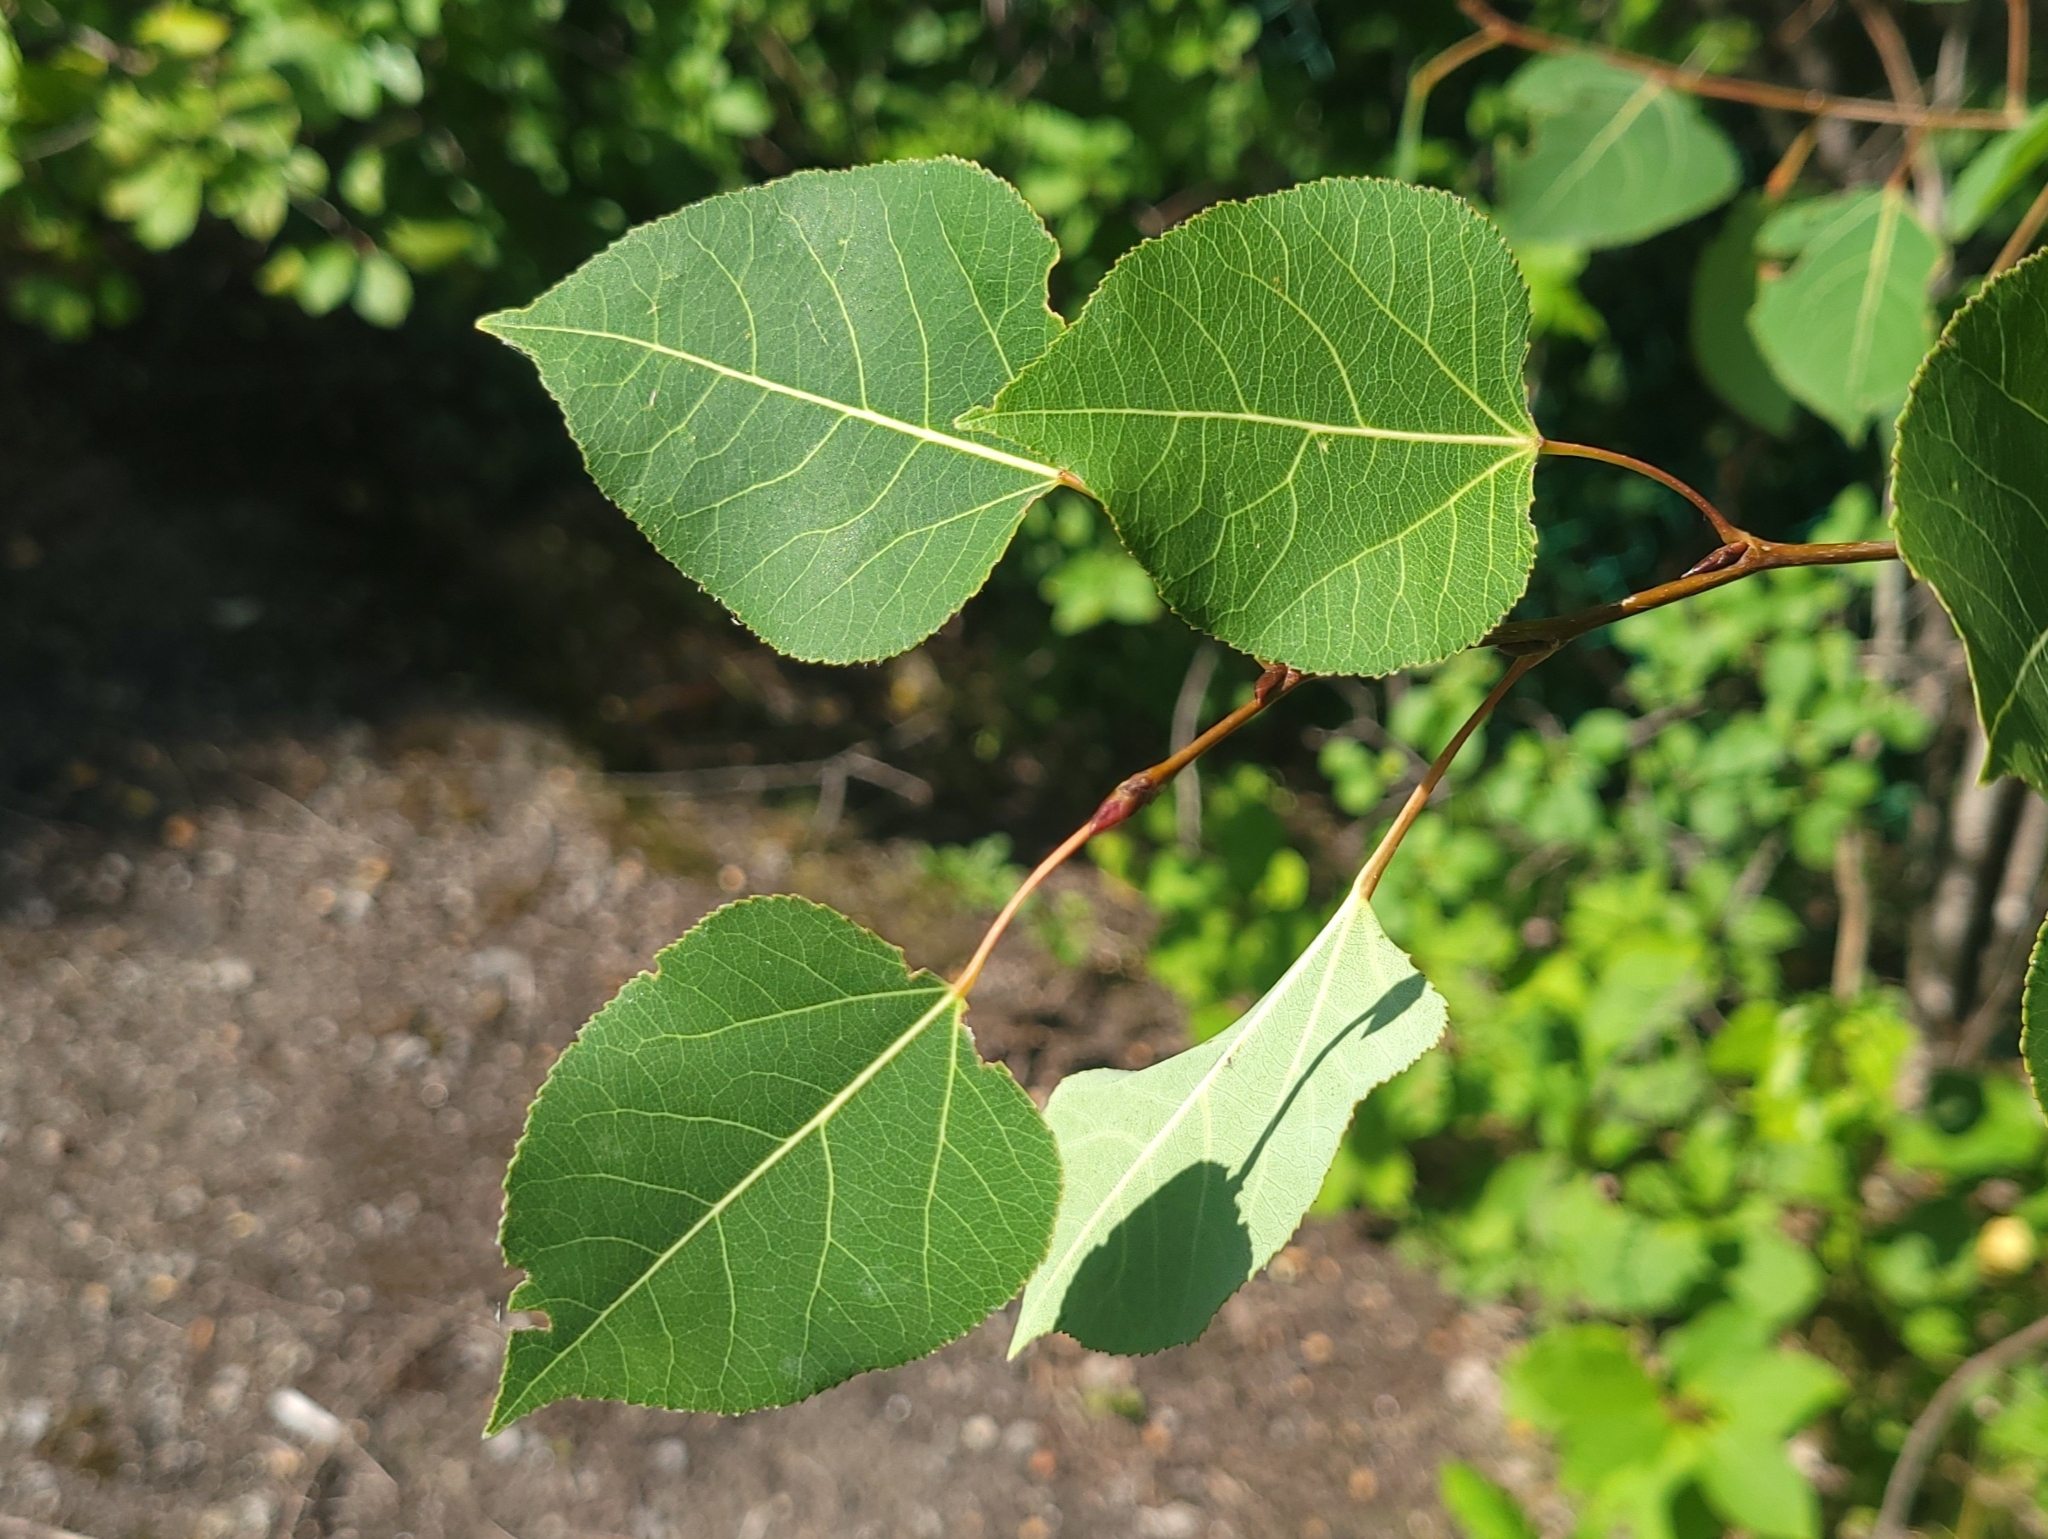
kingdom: Plantae
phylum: Tracheophyta
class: Magnoliopsida
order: Malpighiales
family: Salicaceae
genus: Populus
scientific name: Populus tremuloides
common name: Quaking aspen
